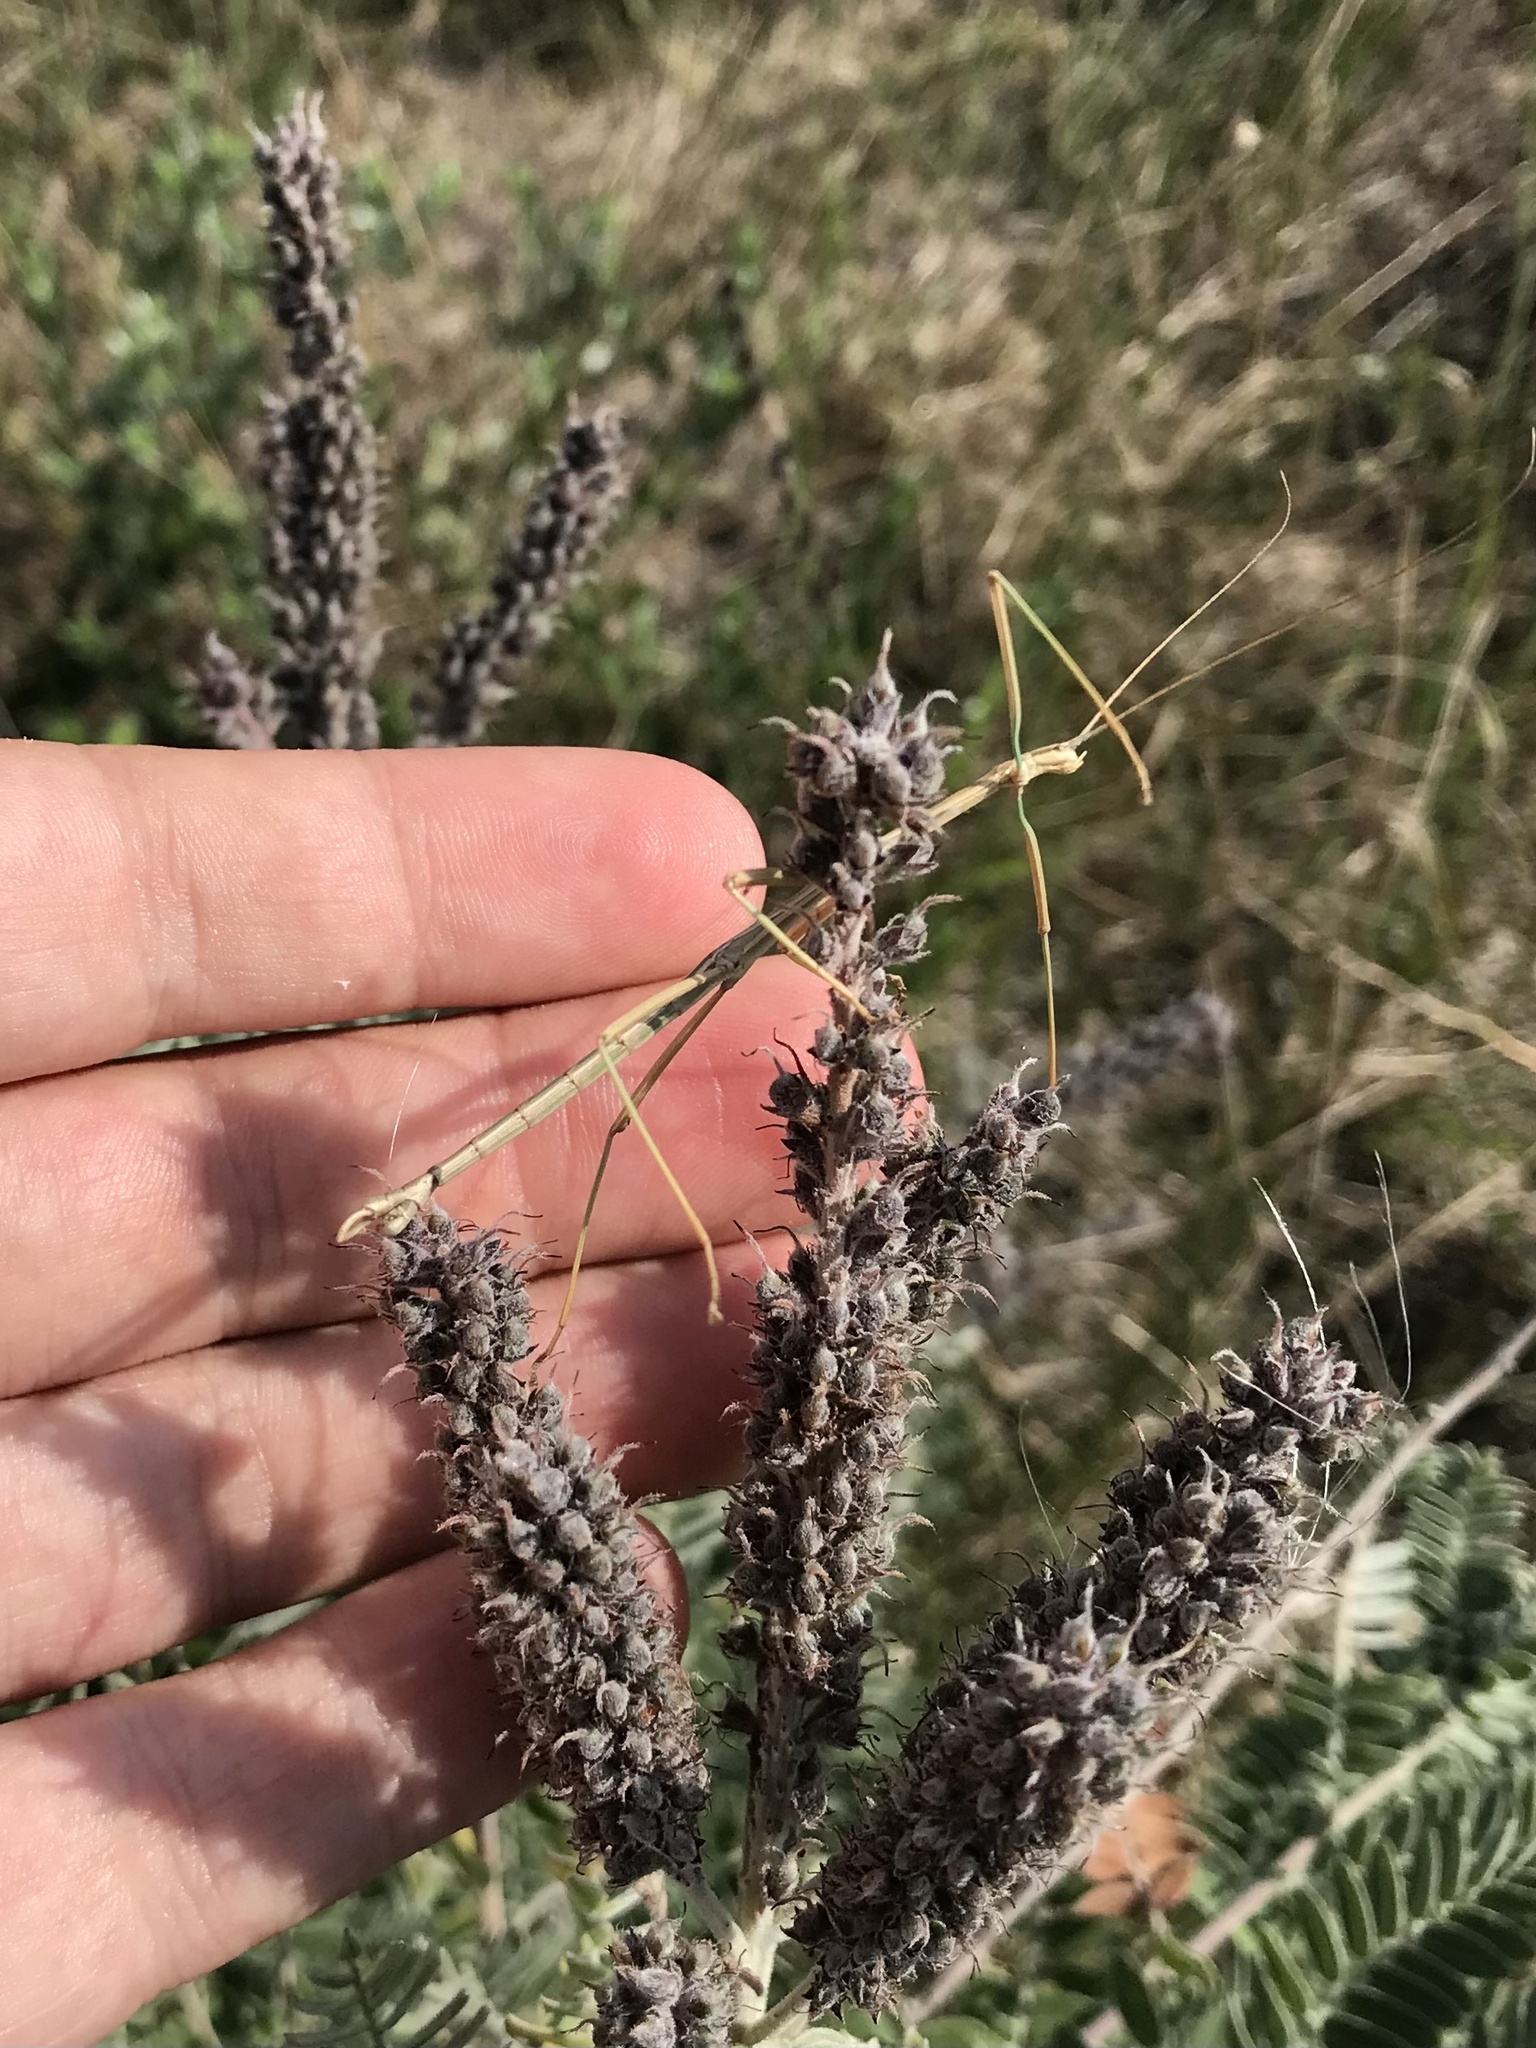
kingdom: Animalia
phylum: Arthropoda
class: Insecta
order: Phasmida
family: Diapheromeridae
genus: Diapheromera
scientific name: Diapheromera velii
